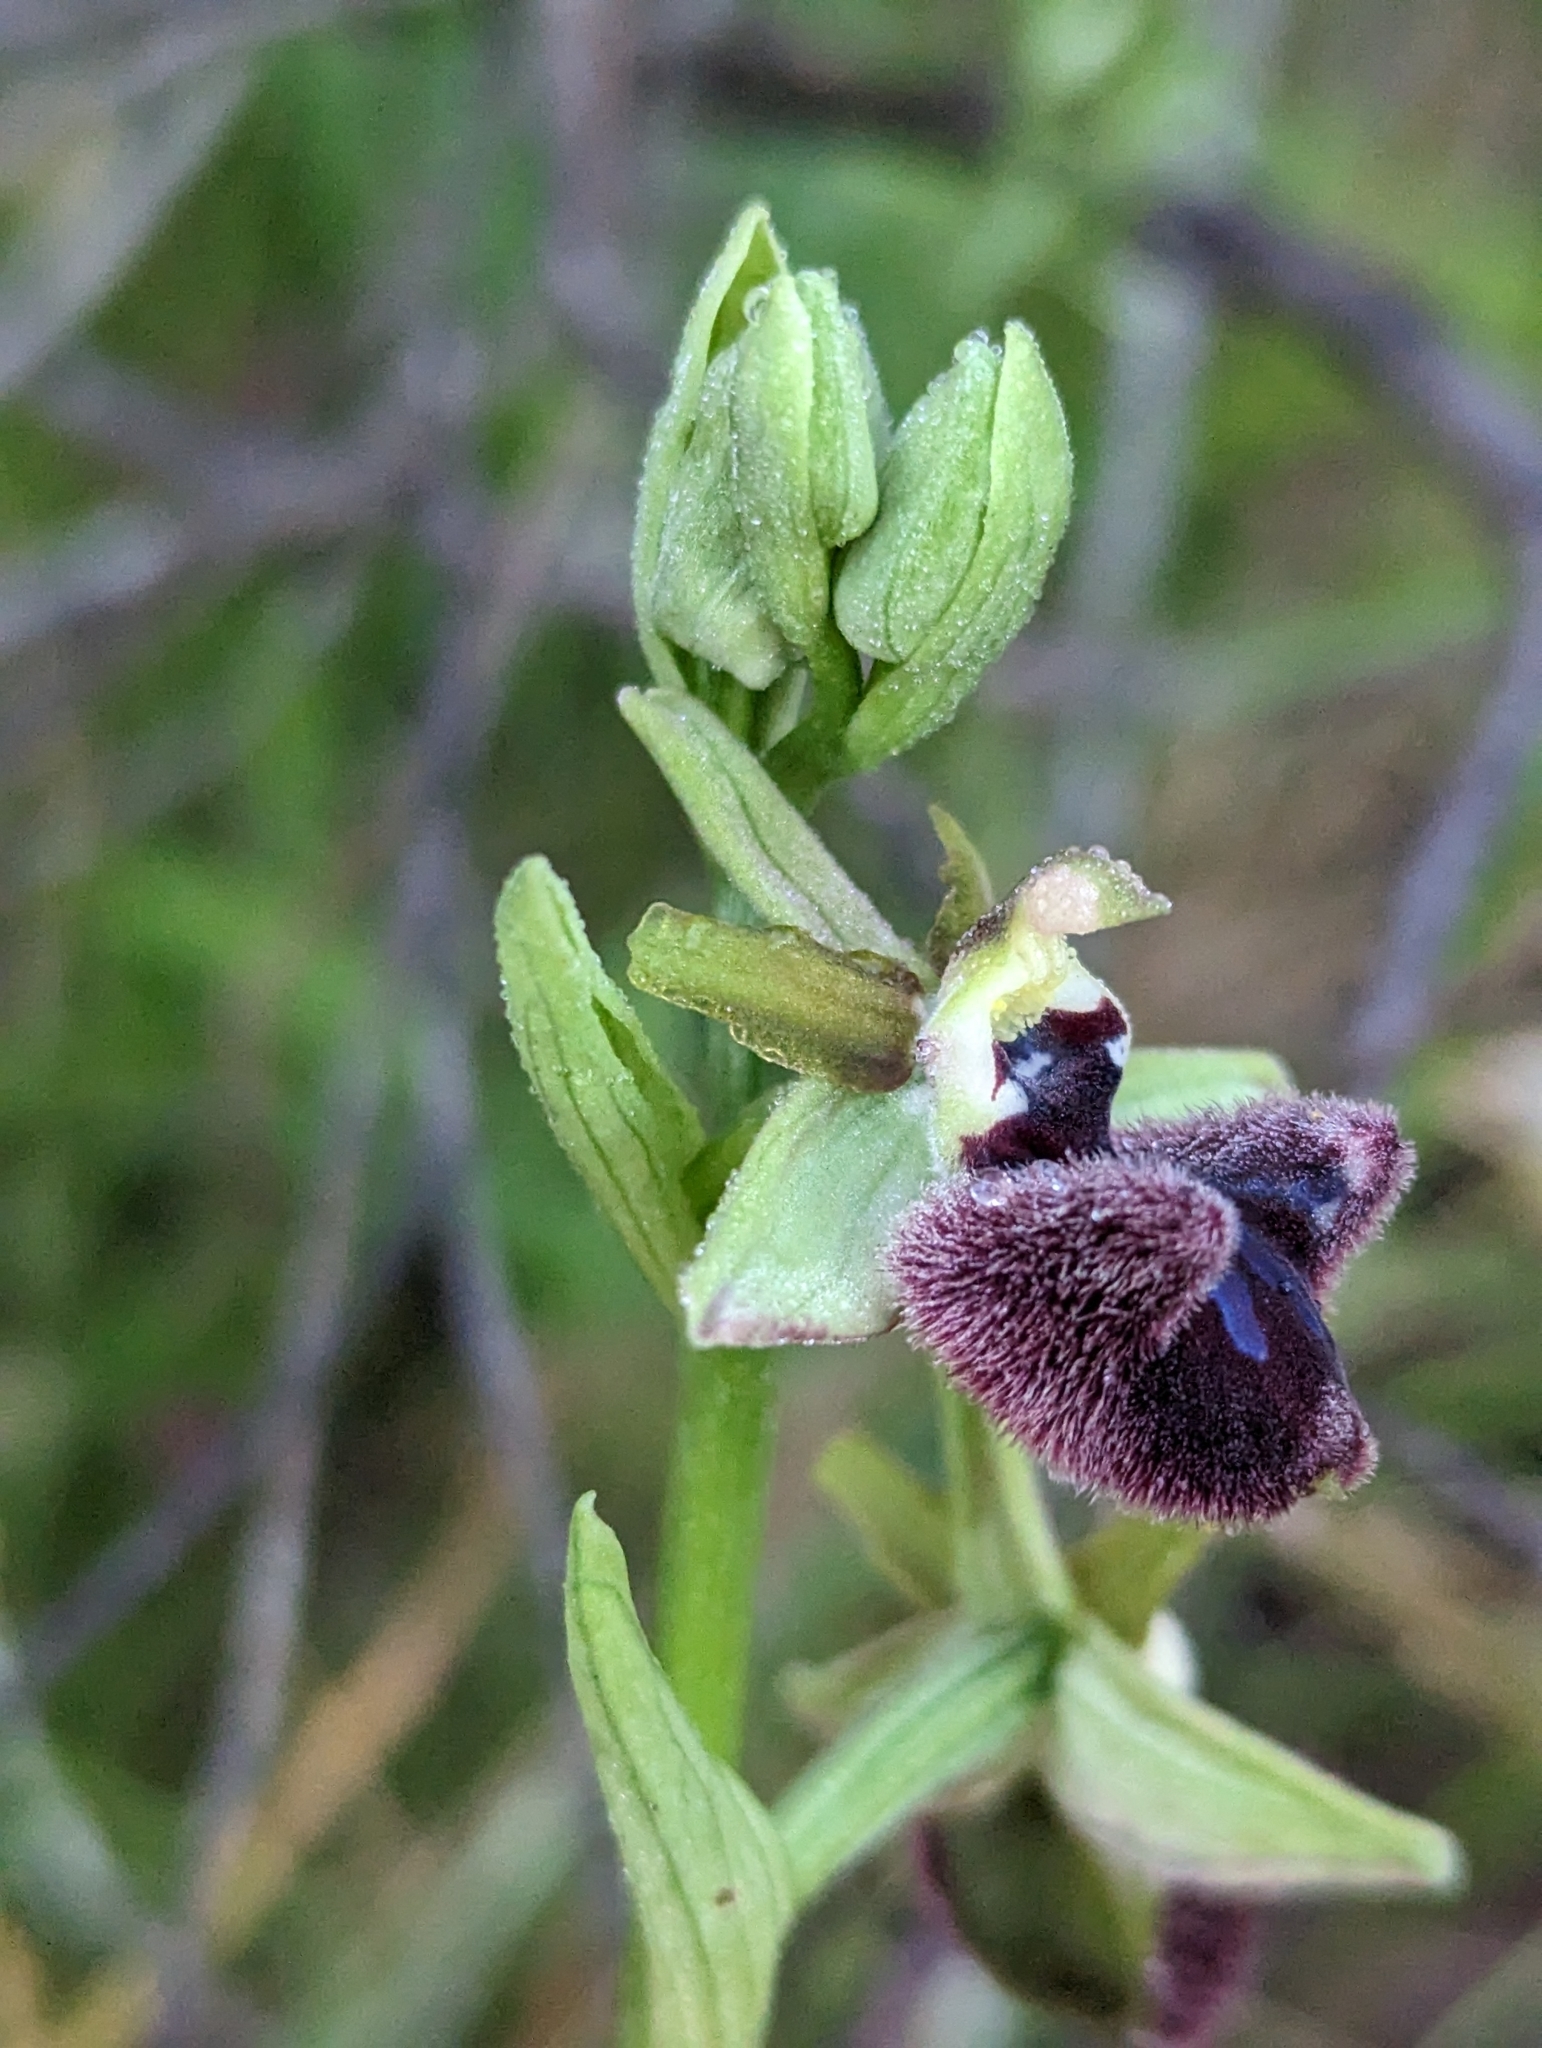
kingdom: Plantae
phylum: Tracheophyta
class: Liliopsida
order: Asparagales
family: Orchidaceae
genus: Ophrys
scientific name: Ophrys sphegodes
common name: Early spider-orchid
